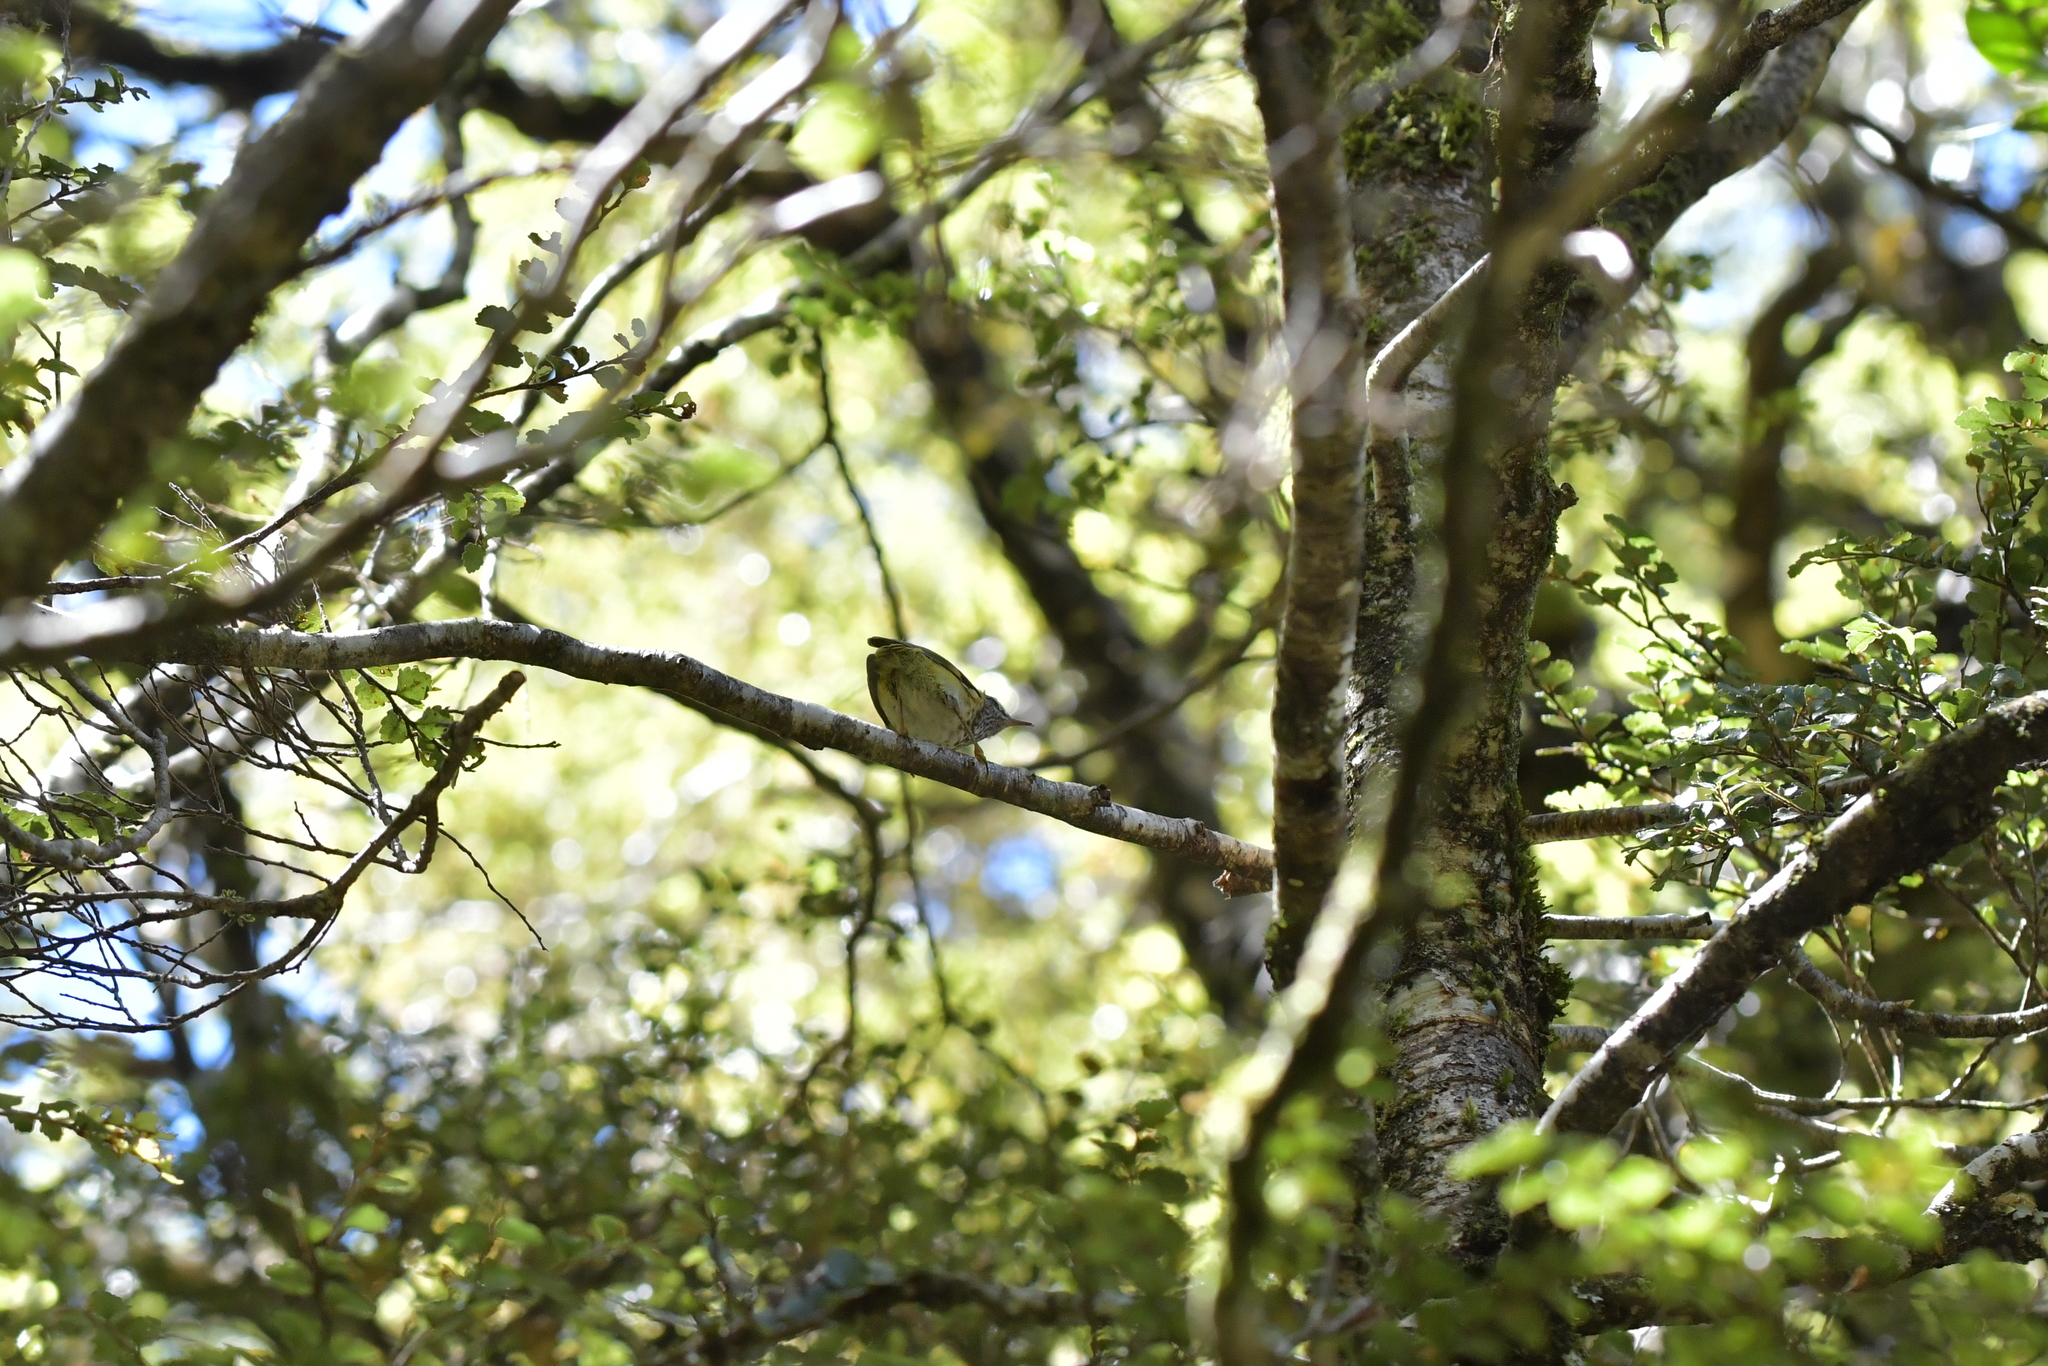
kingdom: Animalia
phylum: Chordata
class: Aves
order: Passeriformes
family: Acanthisittidae
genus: Acanthisitta
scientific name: Acanthisitta chloris
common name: Rifleman
